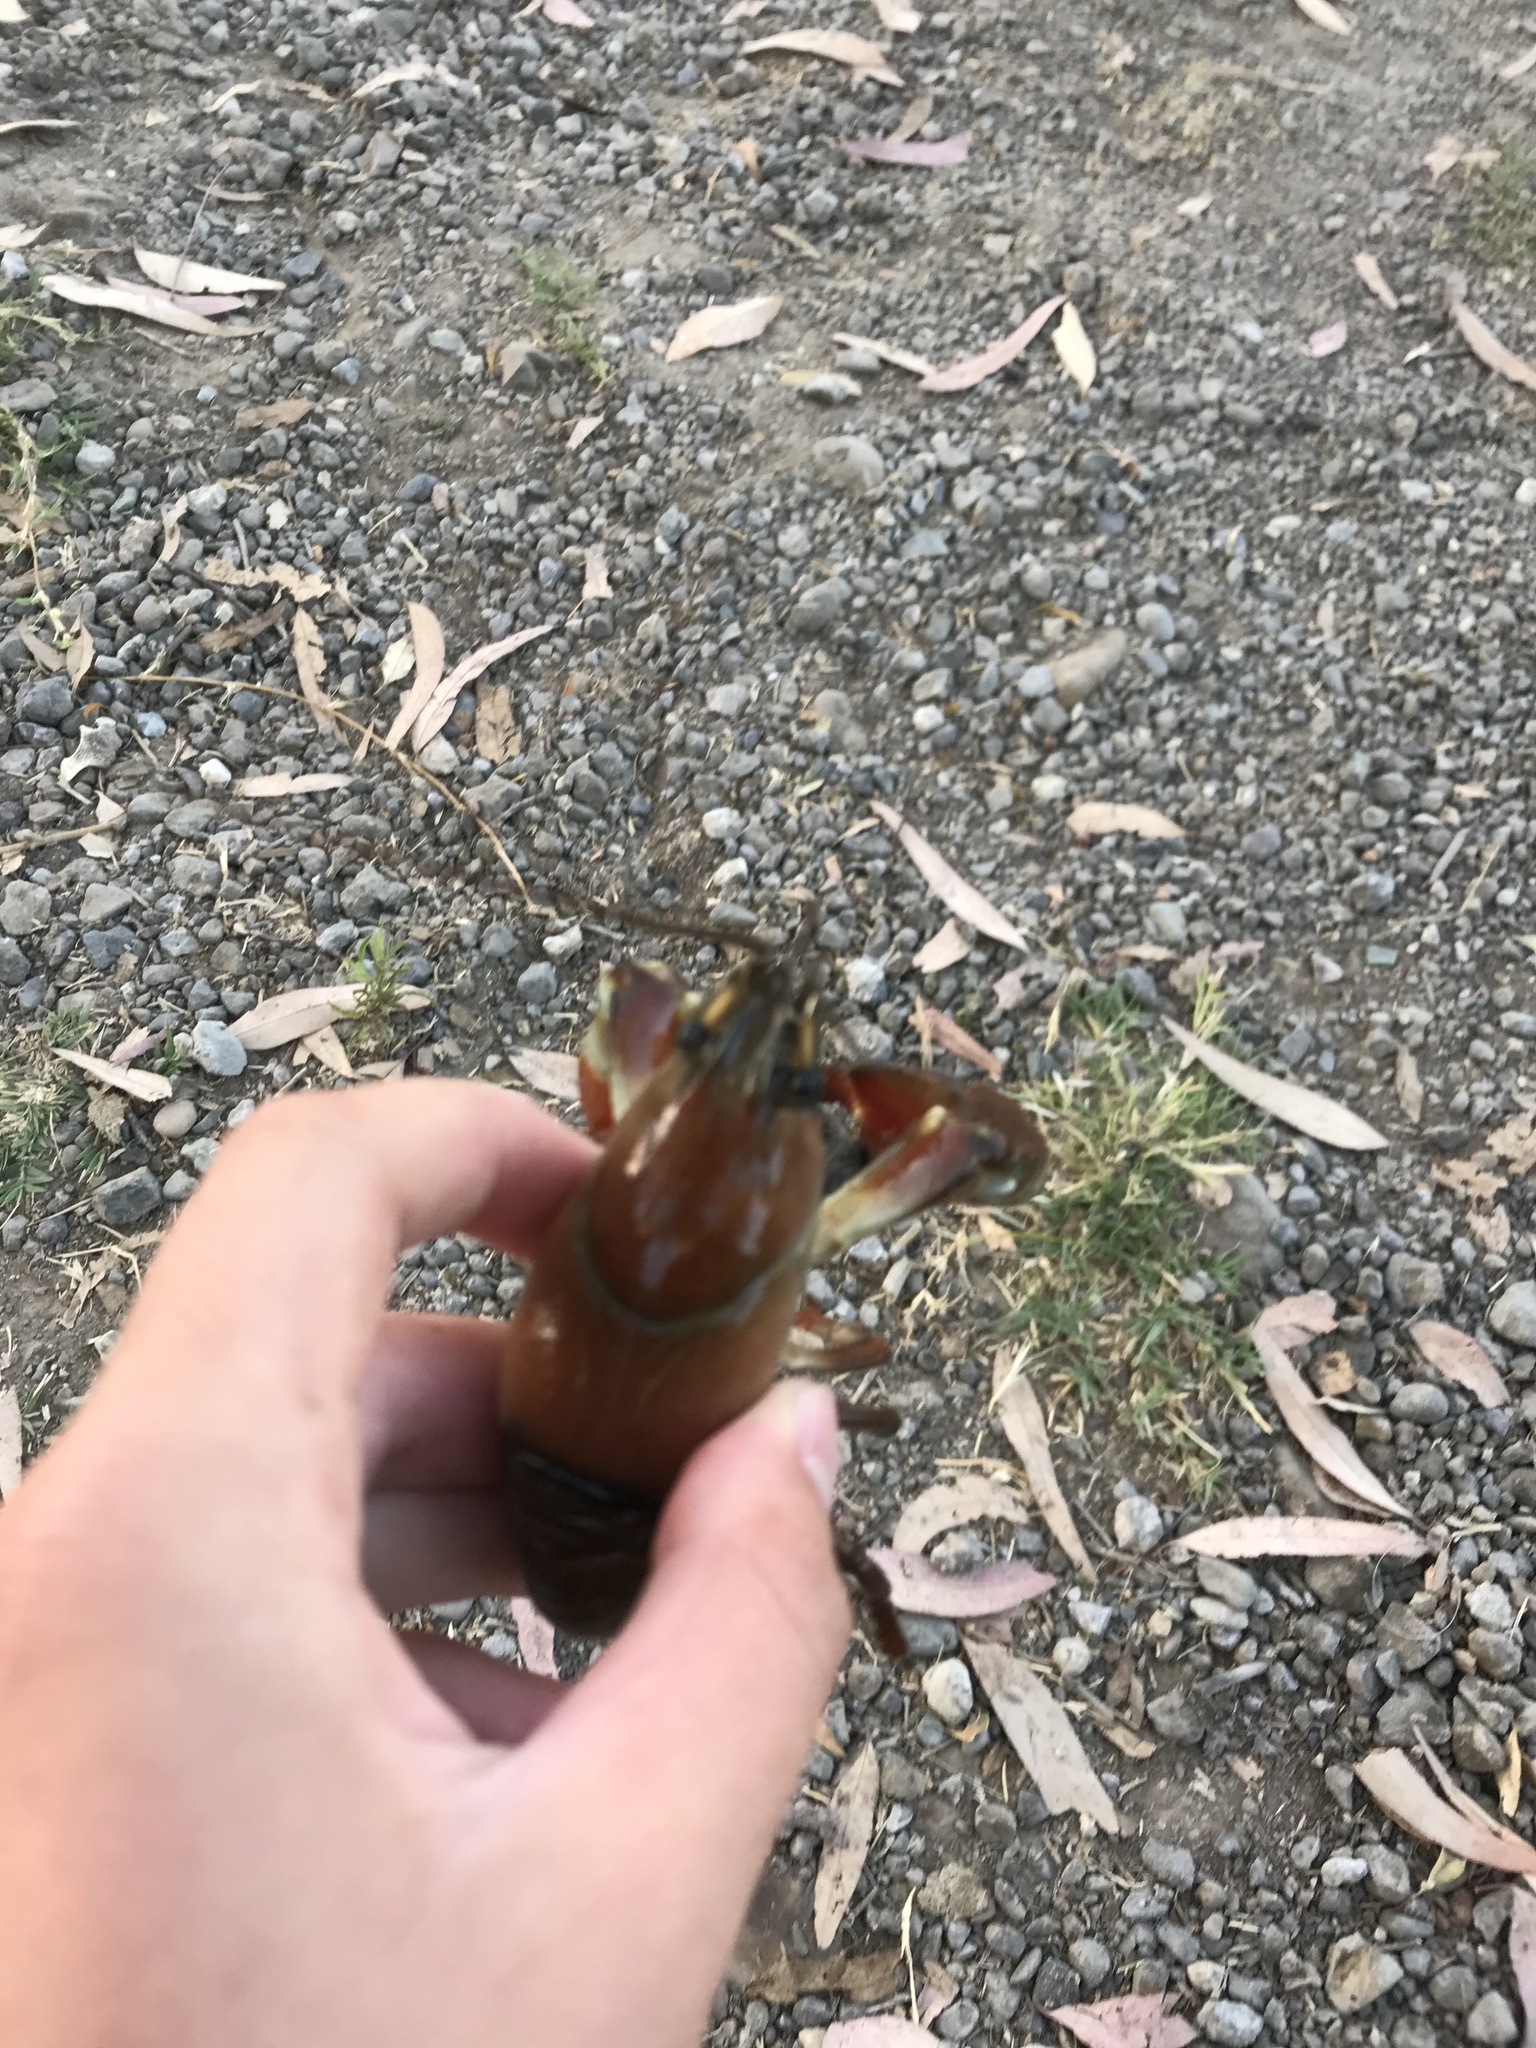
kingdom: Animalia
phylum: Arthropoda
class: Malacostraca
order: Decapoda
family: Astacidae
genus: Pacifastacus
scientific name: Pacifastacus leniusculus
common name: Signal crayfish
